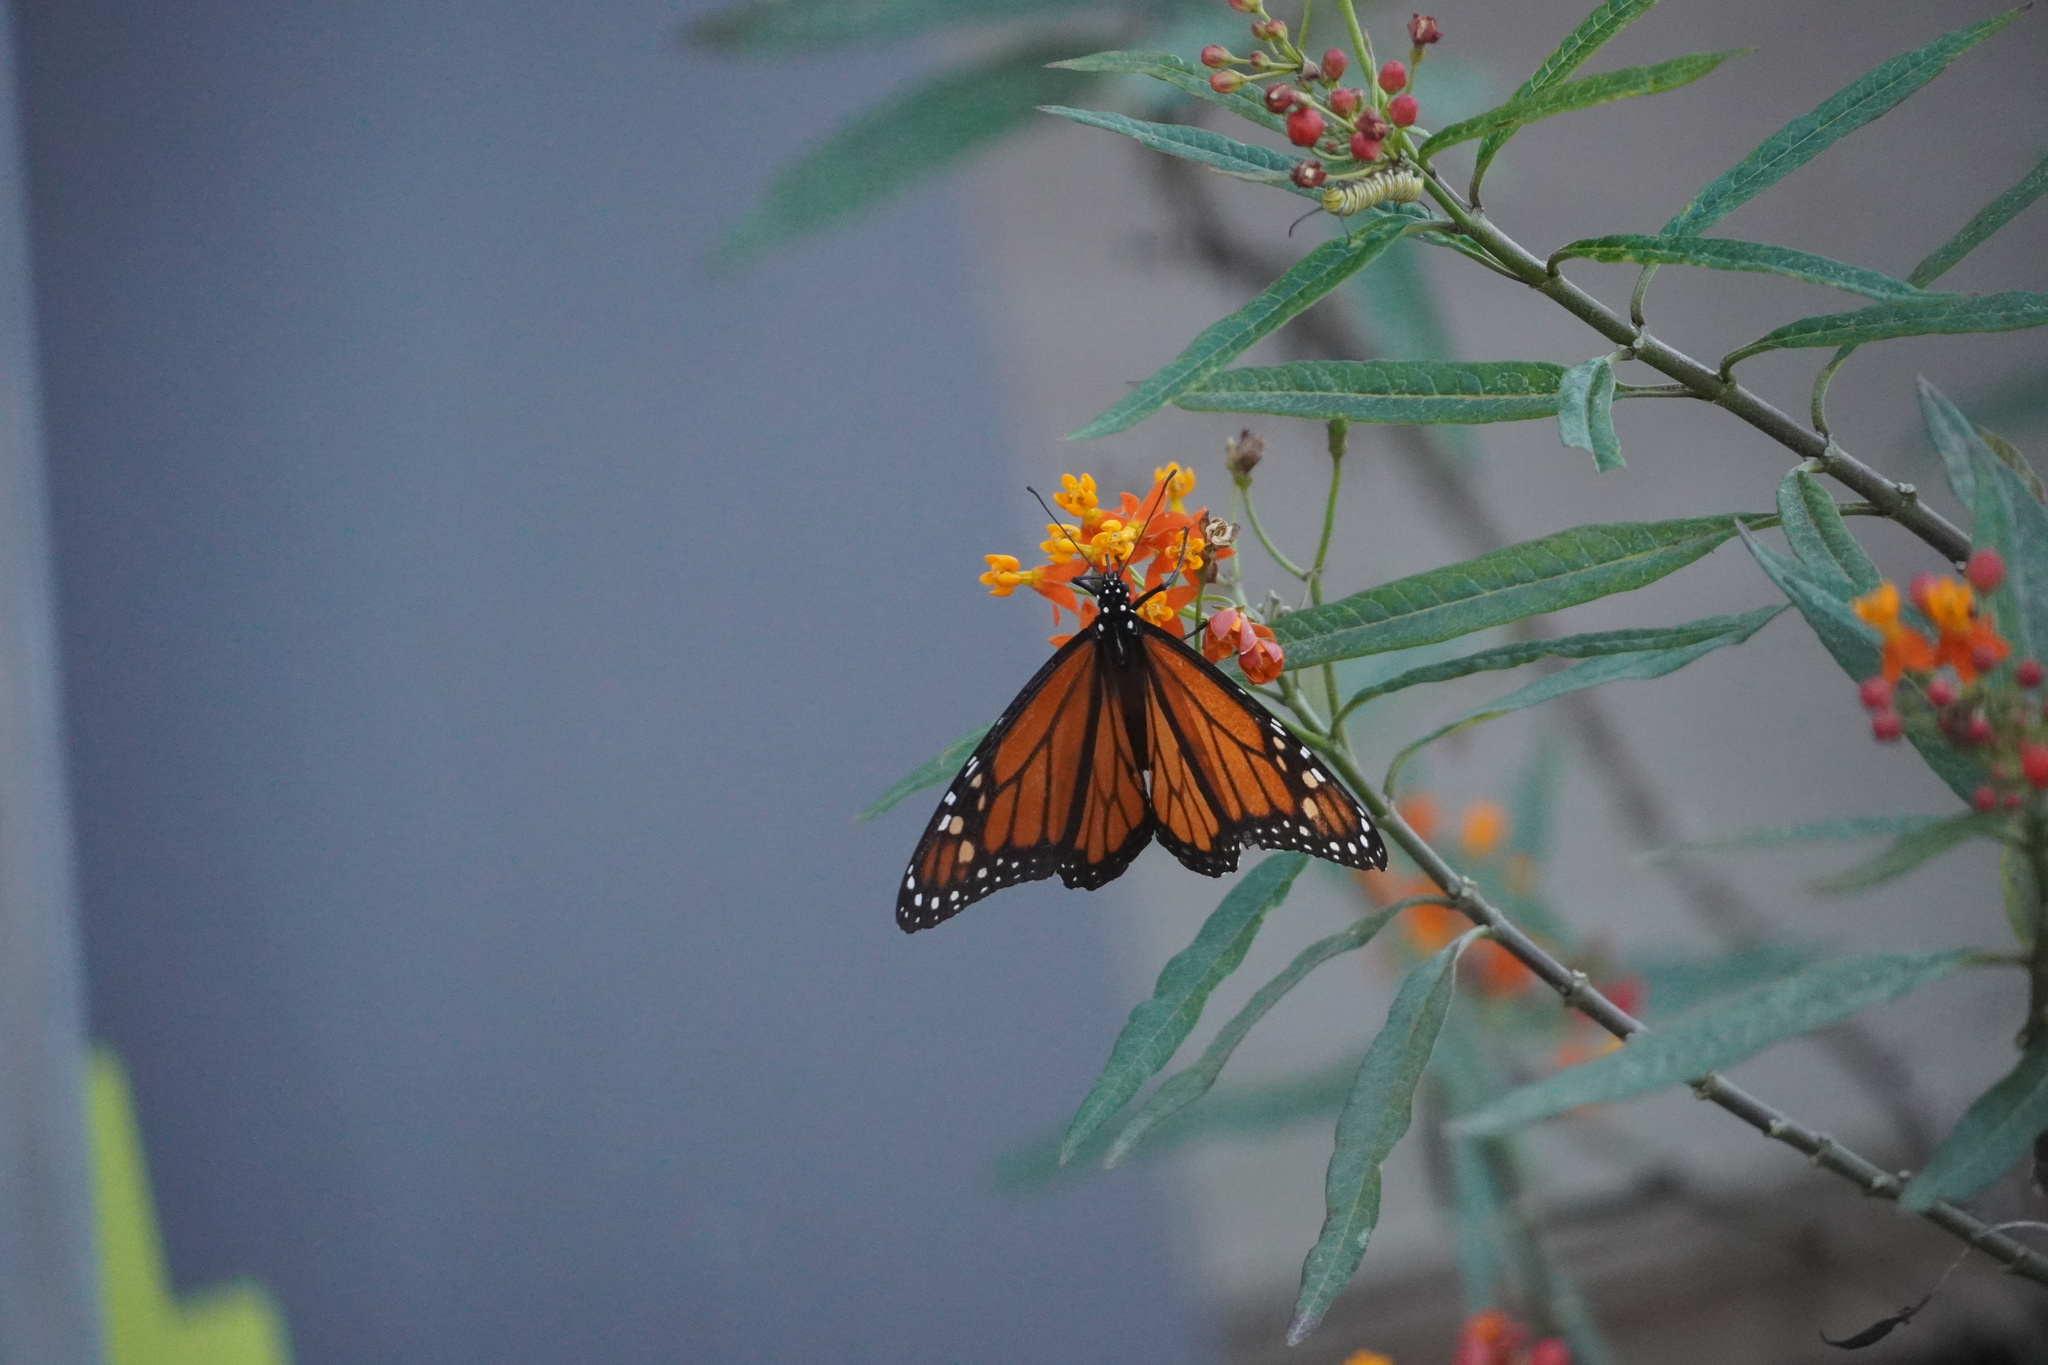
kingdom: Animalia
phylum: Arthropoda
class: Insecta
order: Lepidoptera
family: Nymphalidae
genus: Danaus
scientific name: Danaus plexippus
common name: Monarch
